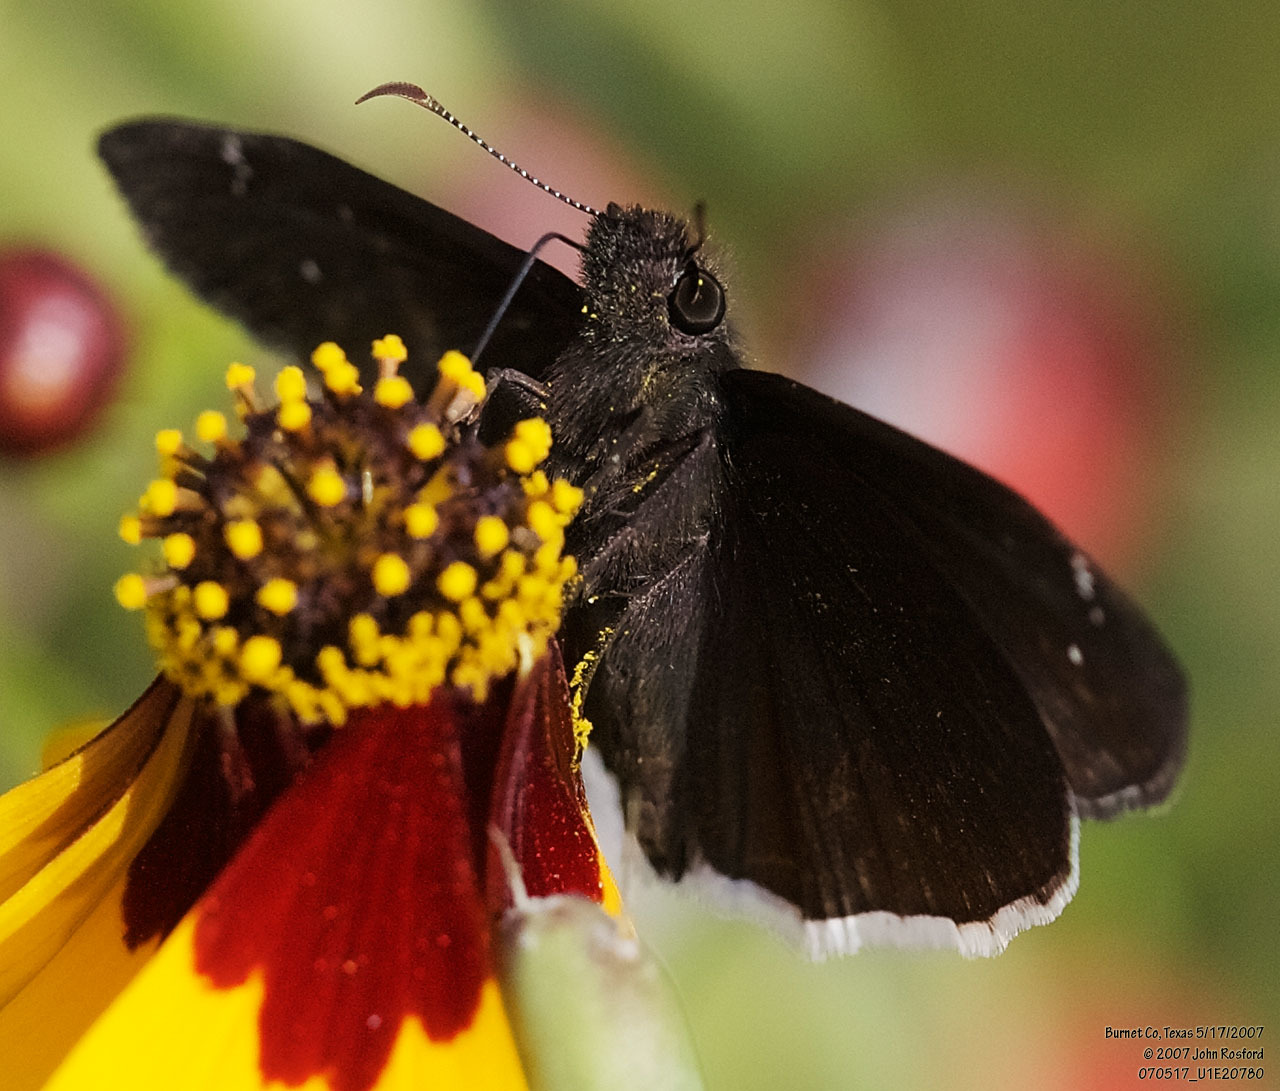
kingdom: Animalia
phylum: Arthropoda
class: Insecta
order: Lepidoptera
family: Hesperiidae
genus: Erynnis
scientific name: Erynnis funeralis
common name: Funereal duskywing
